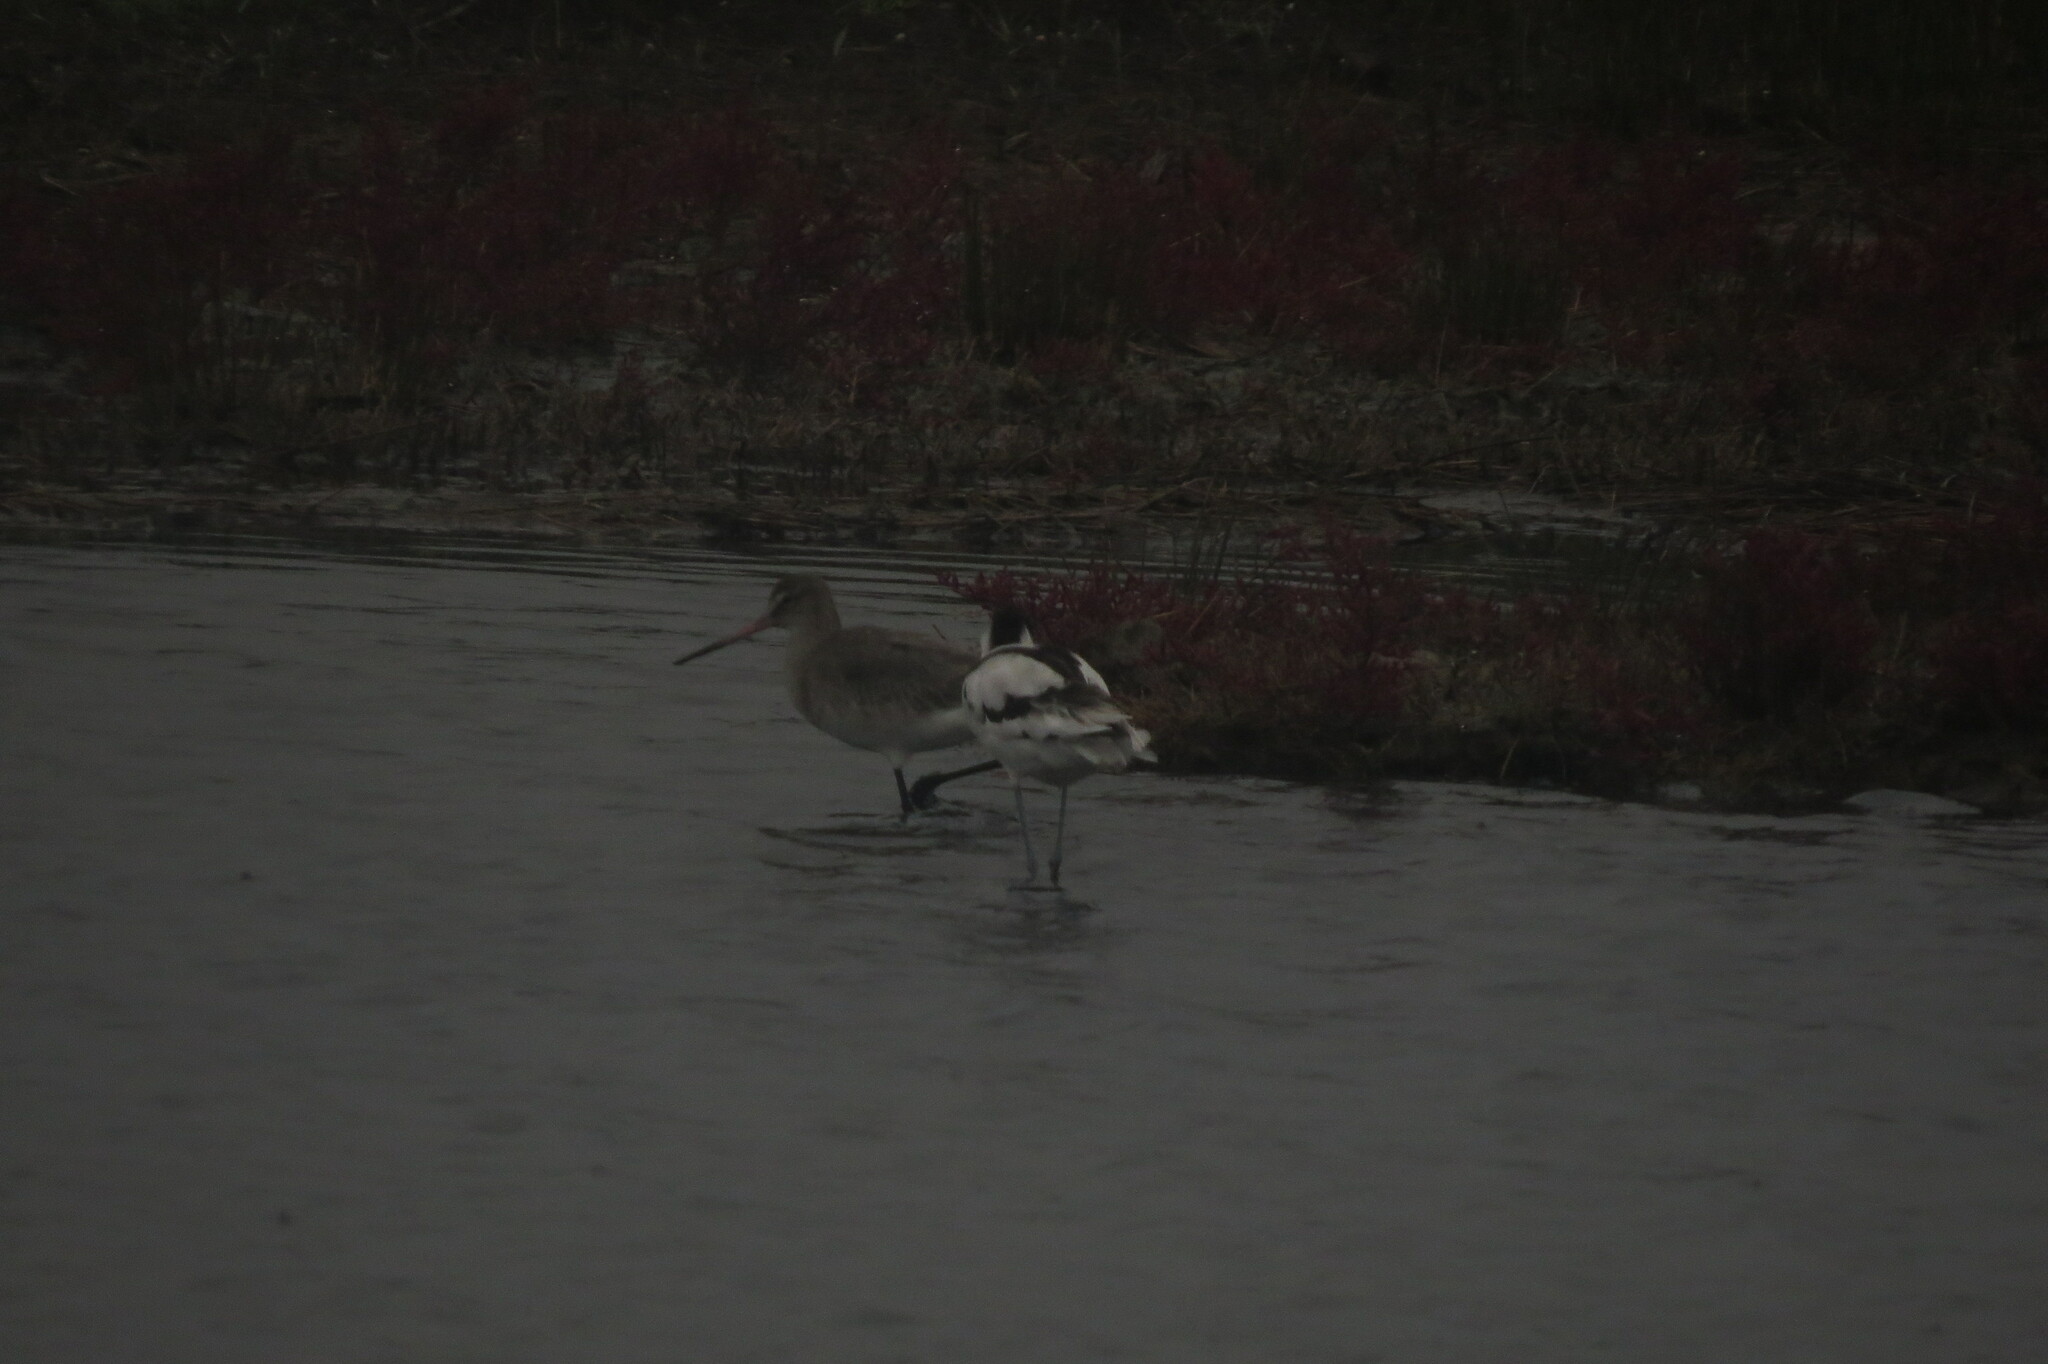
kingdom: Animalia
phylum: Chordata
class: Aves
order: Charadriiformes
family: Recurvirostridae
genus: Recurvirostra
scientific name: Recurvirostra avosetta
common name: Pied avocet
